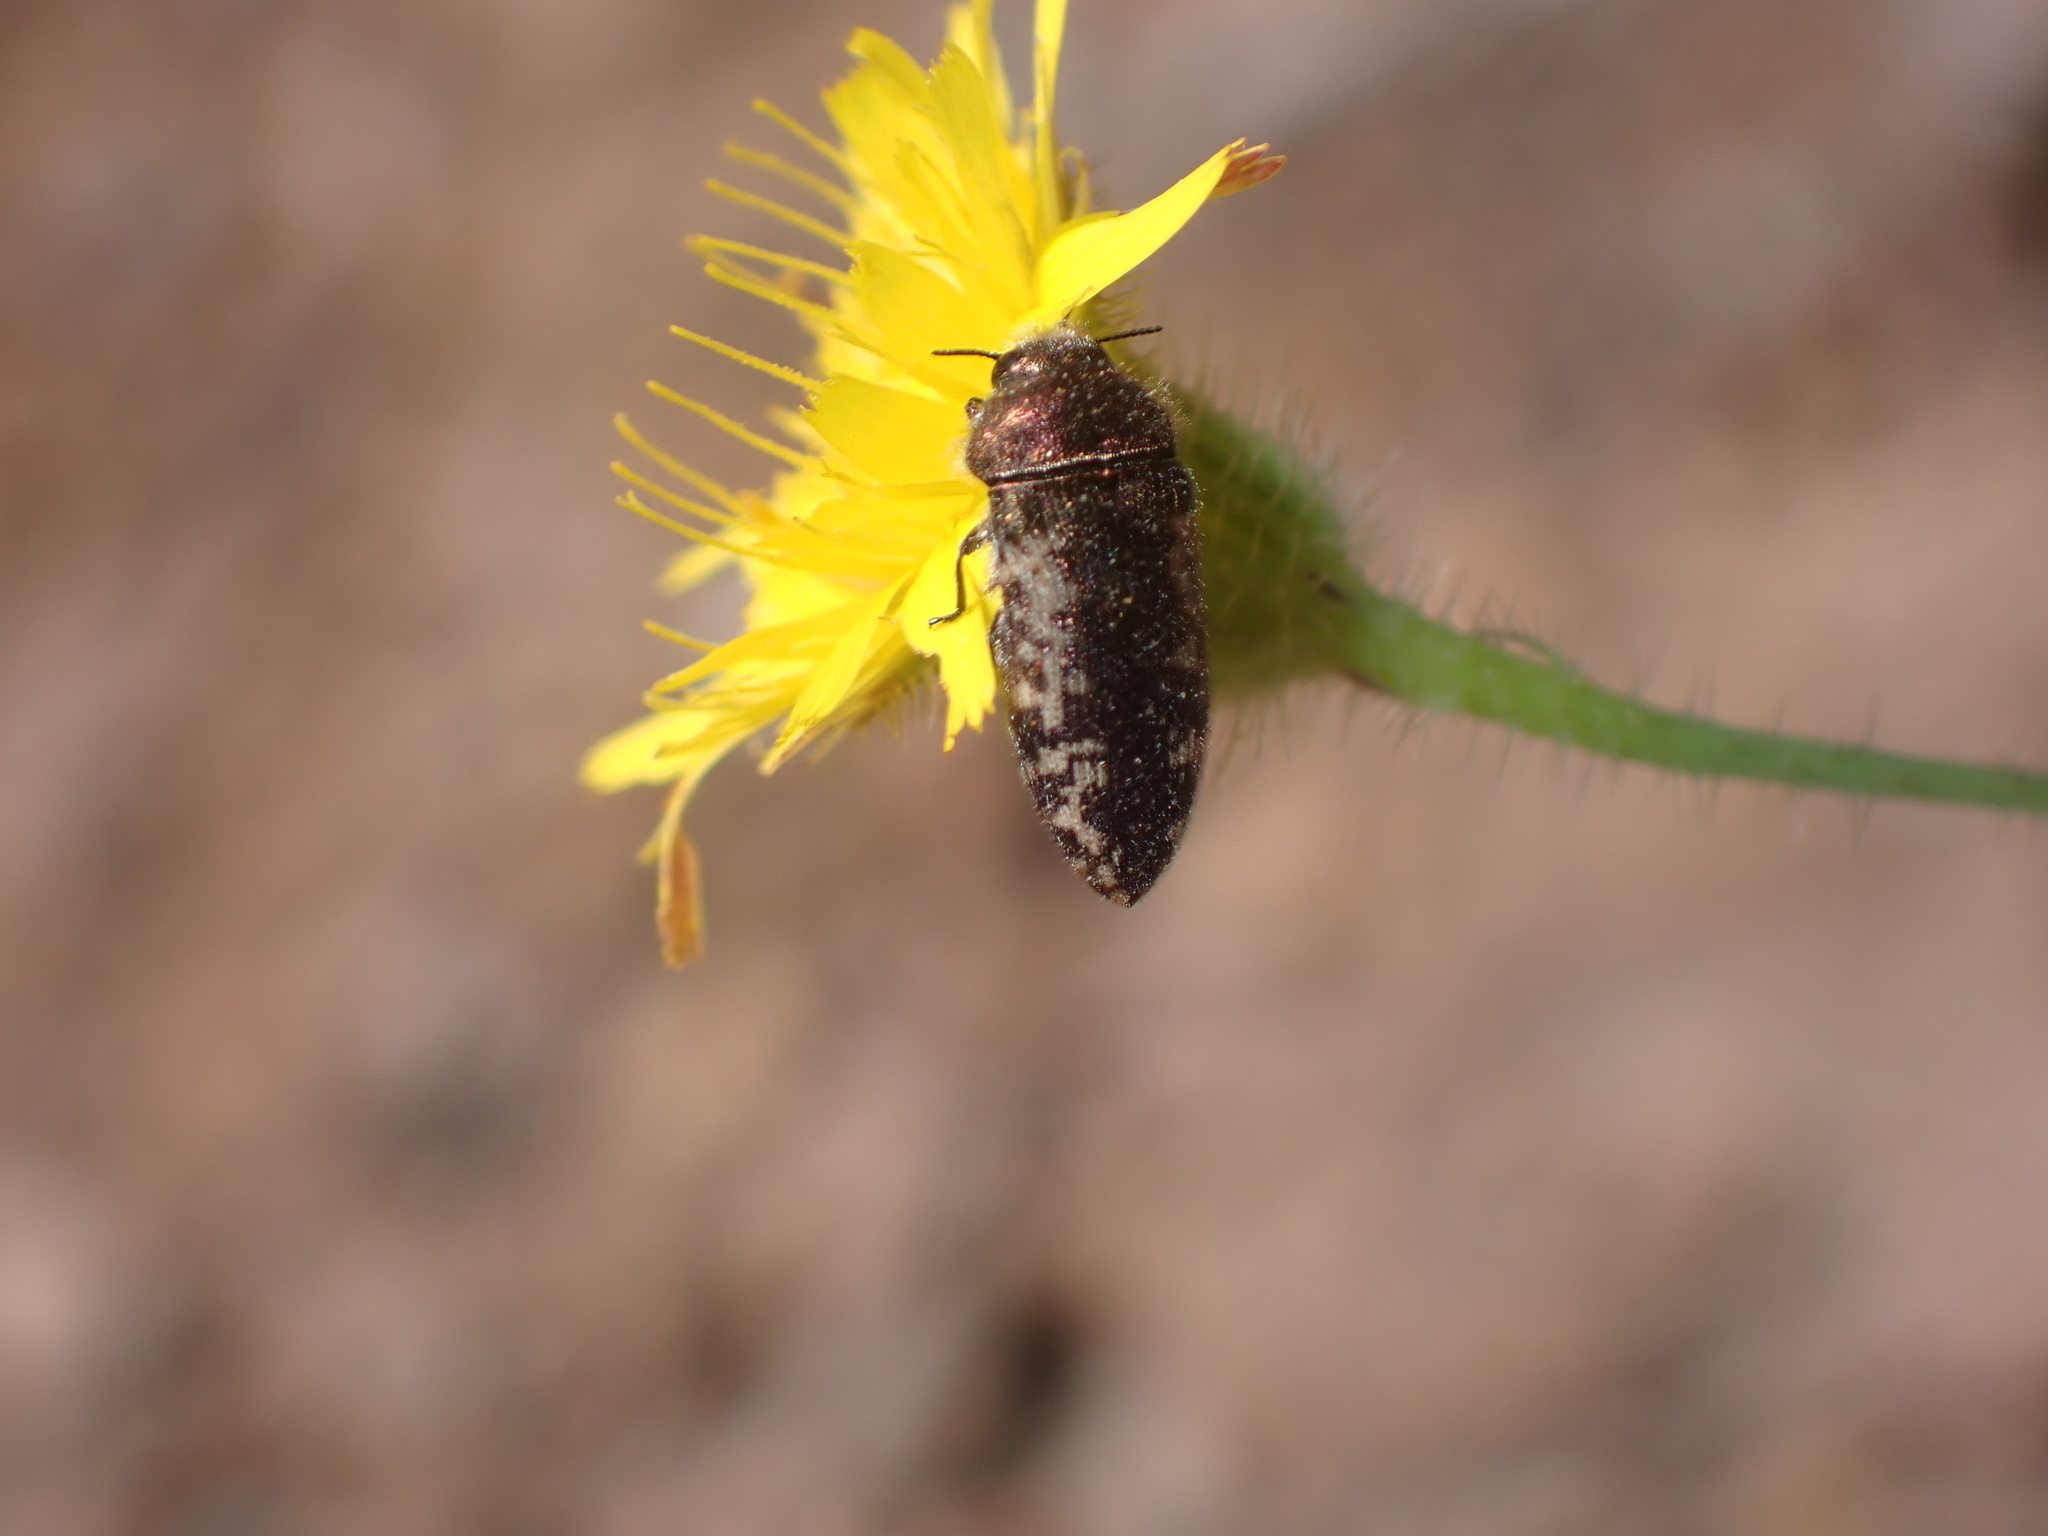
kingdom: Animalia
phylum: Arthropoda
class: Insecta
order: Coleoptera
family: Buprestidae
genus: Acmaeodera
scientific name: Acmaeodera pilosellae
